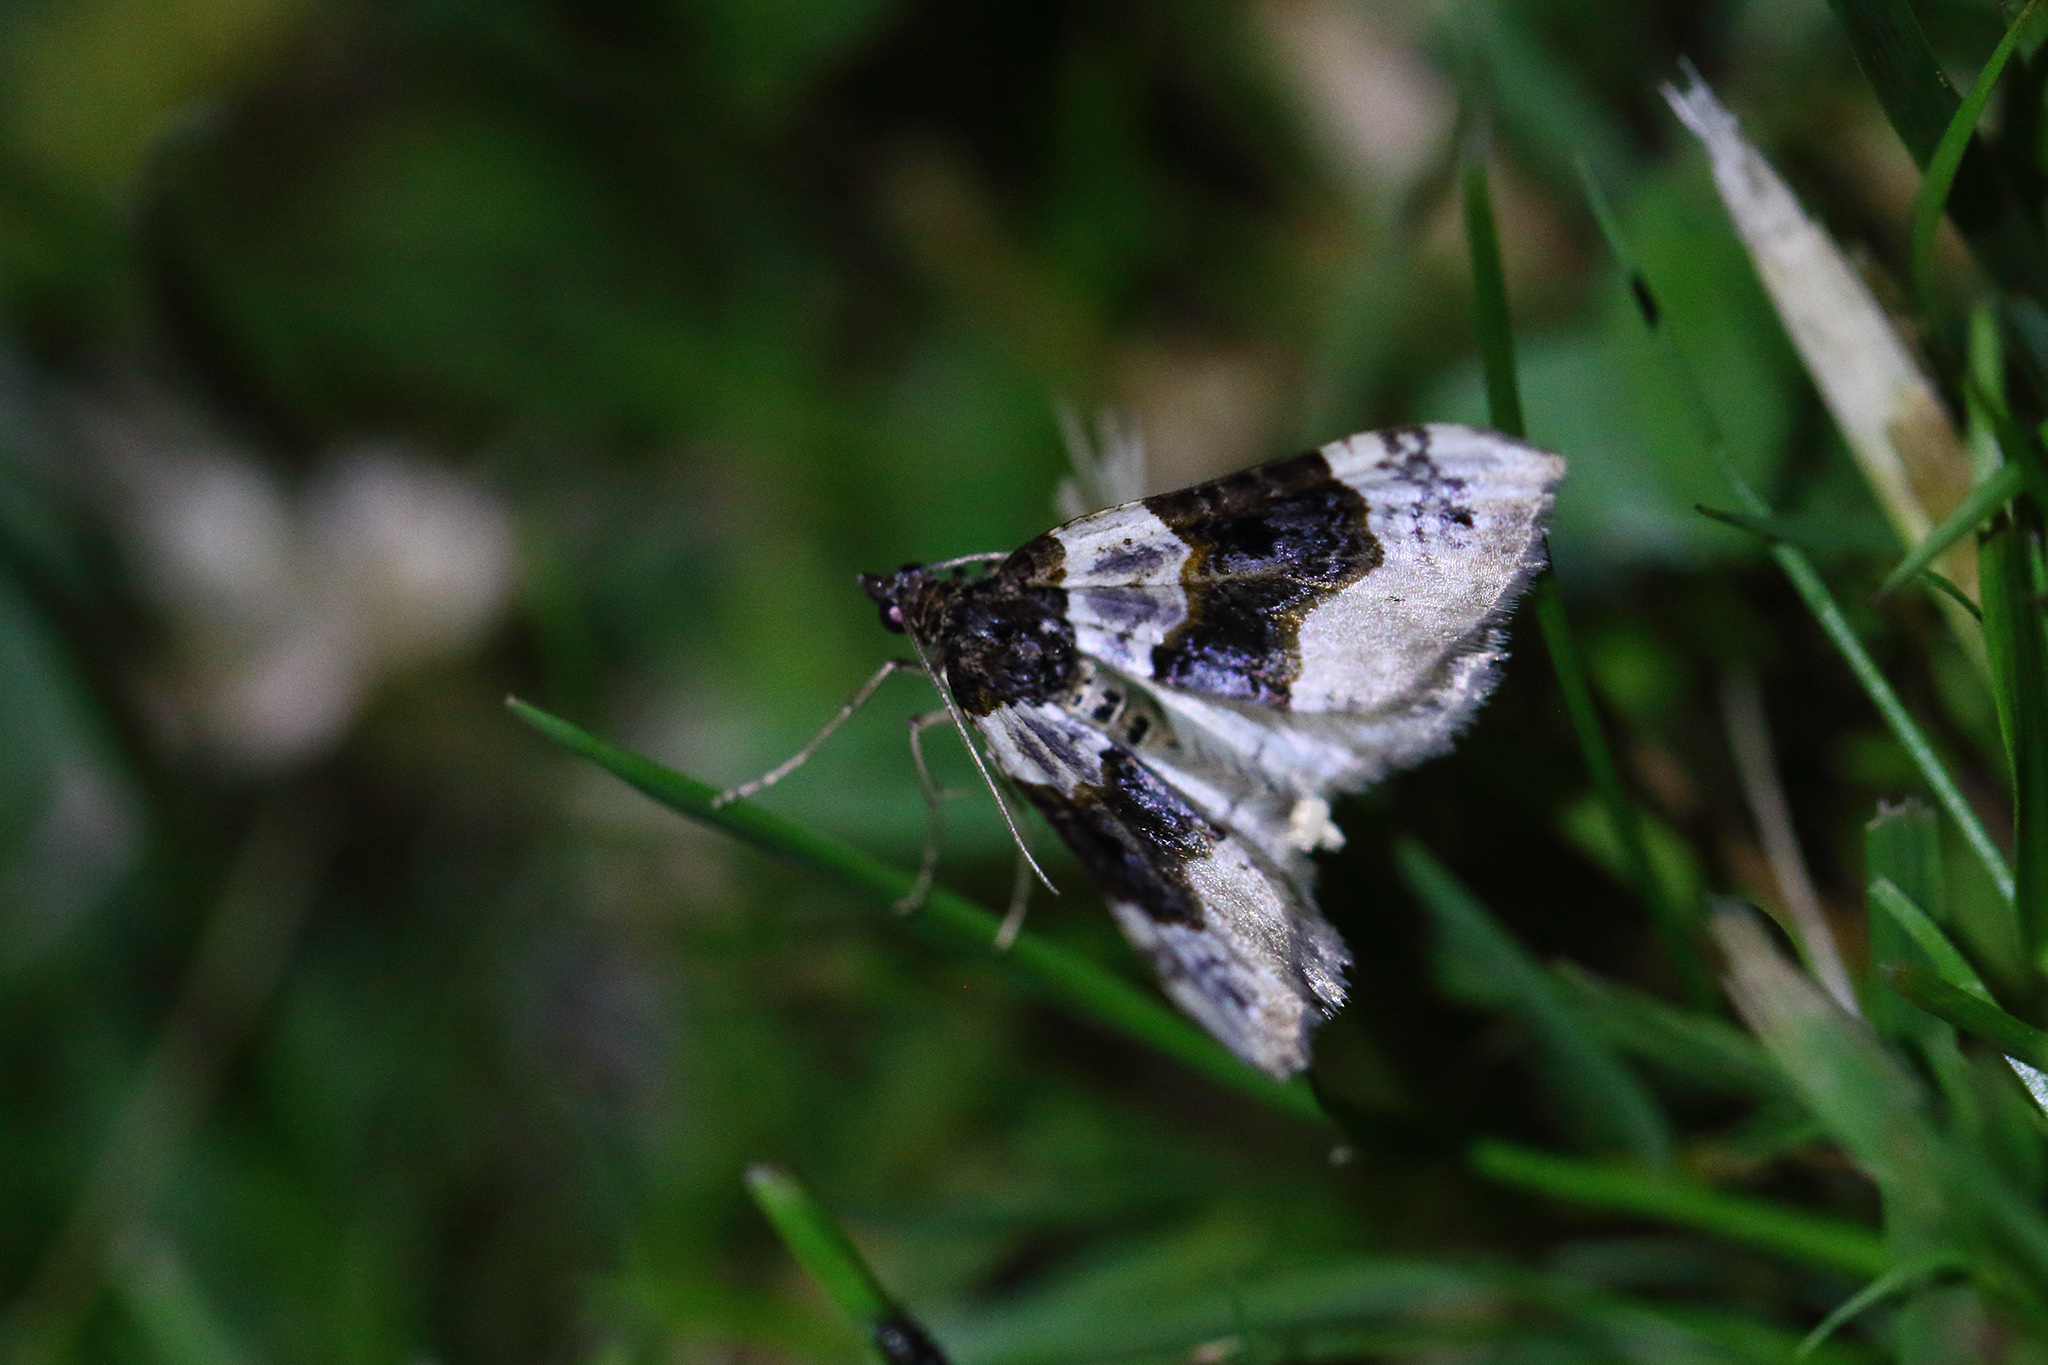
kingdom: Animalia
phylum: Arthropoda
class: Insecta
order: Lepidoptera
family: Geometridae
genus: Cosmorhoe
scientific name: Cosmorhoe ocellata
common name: Purple bar
